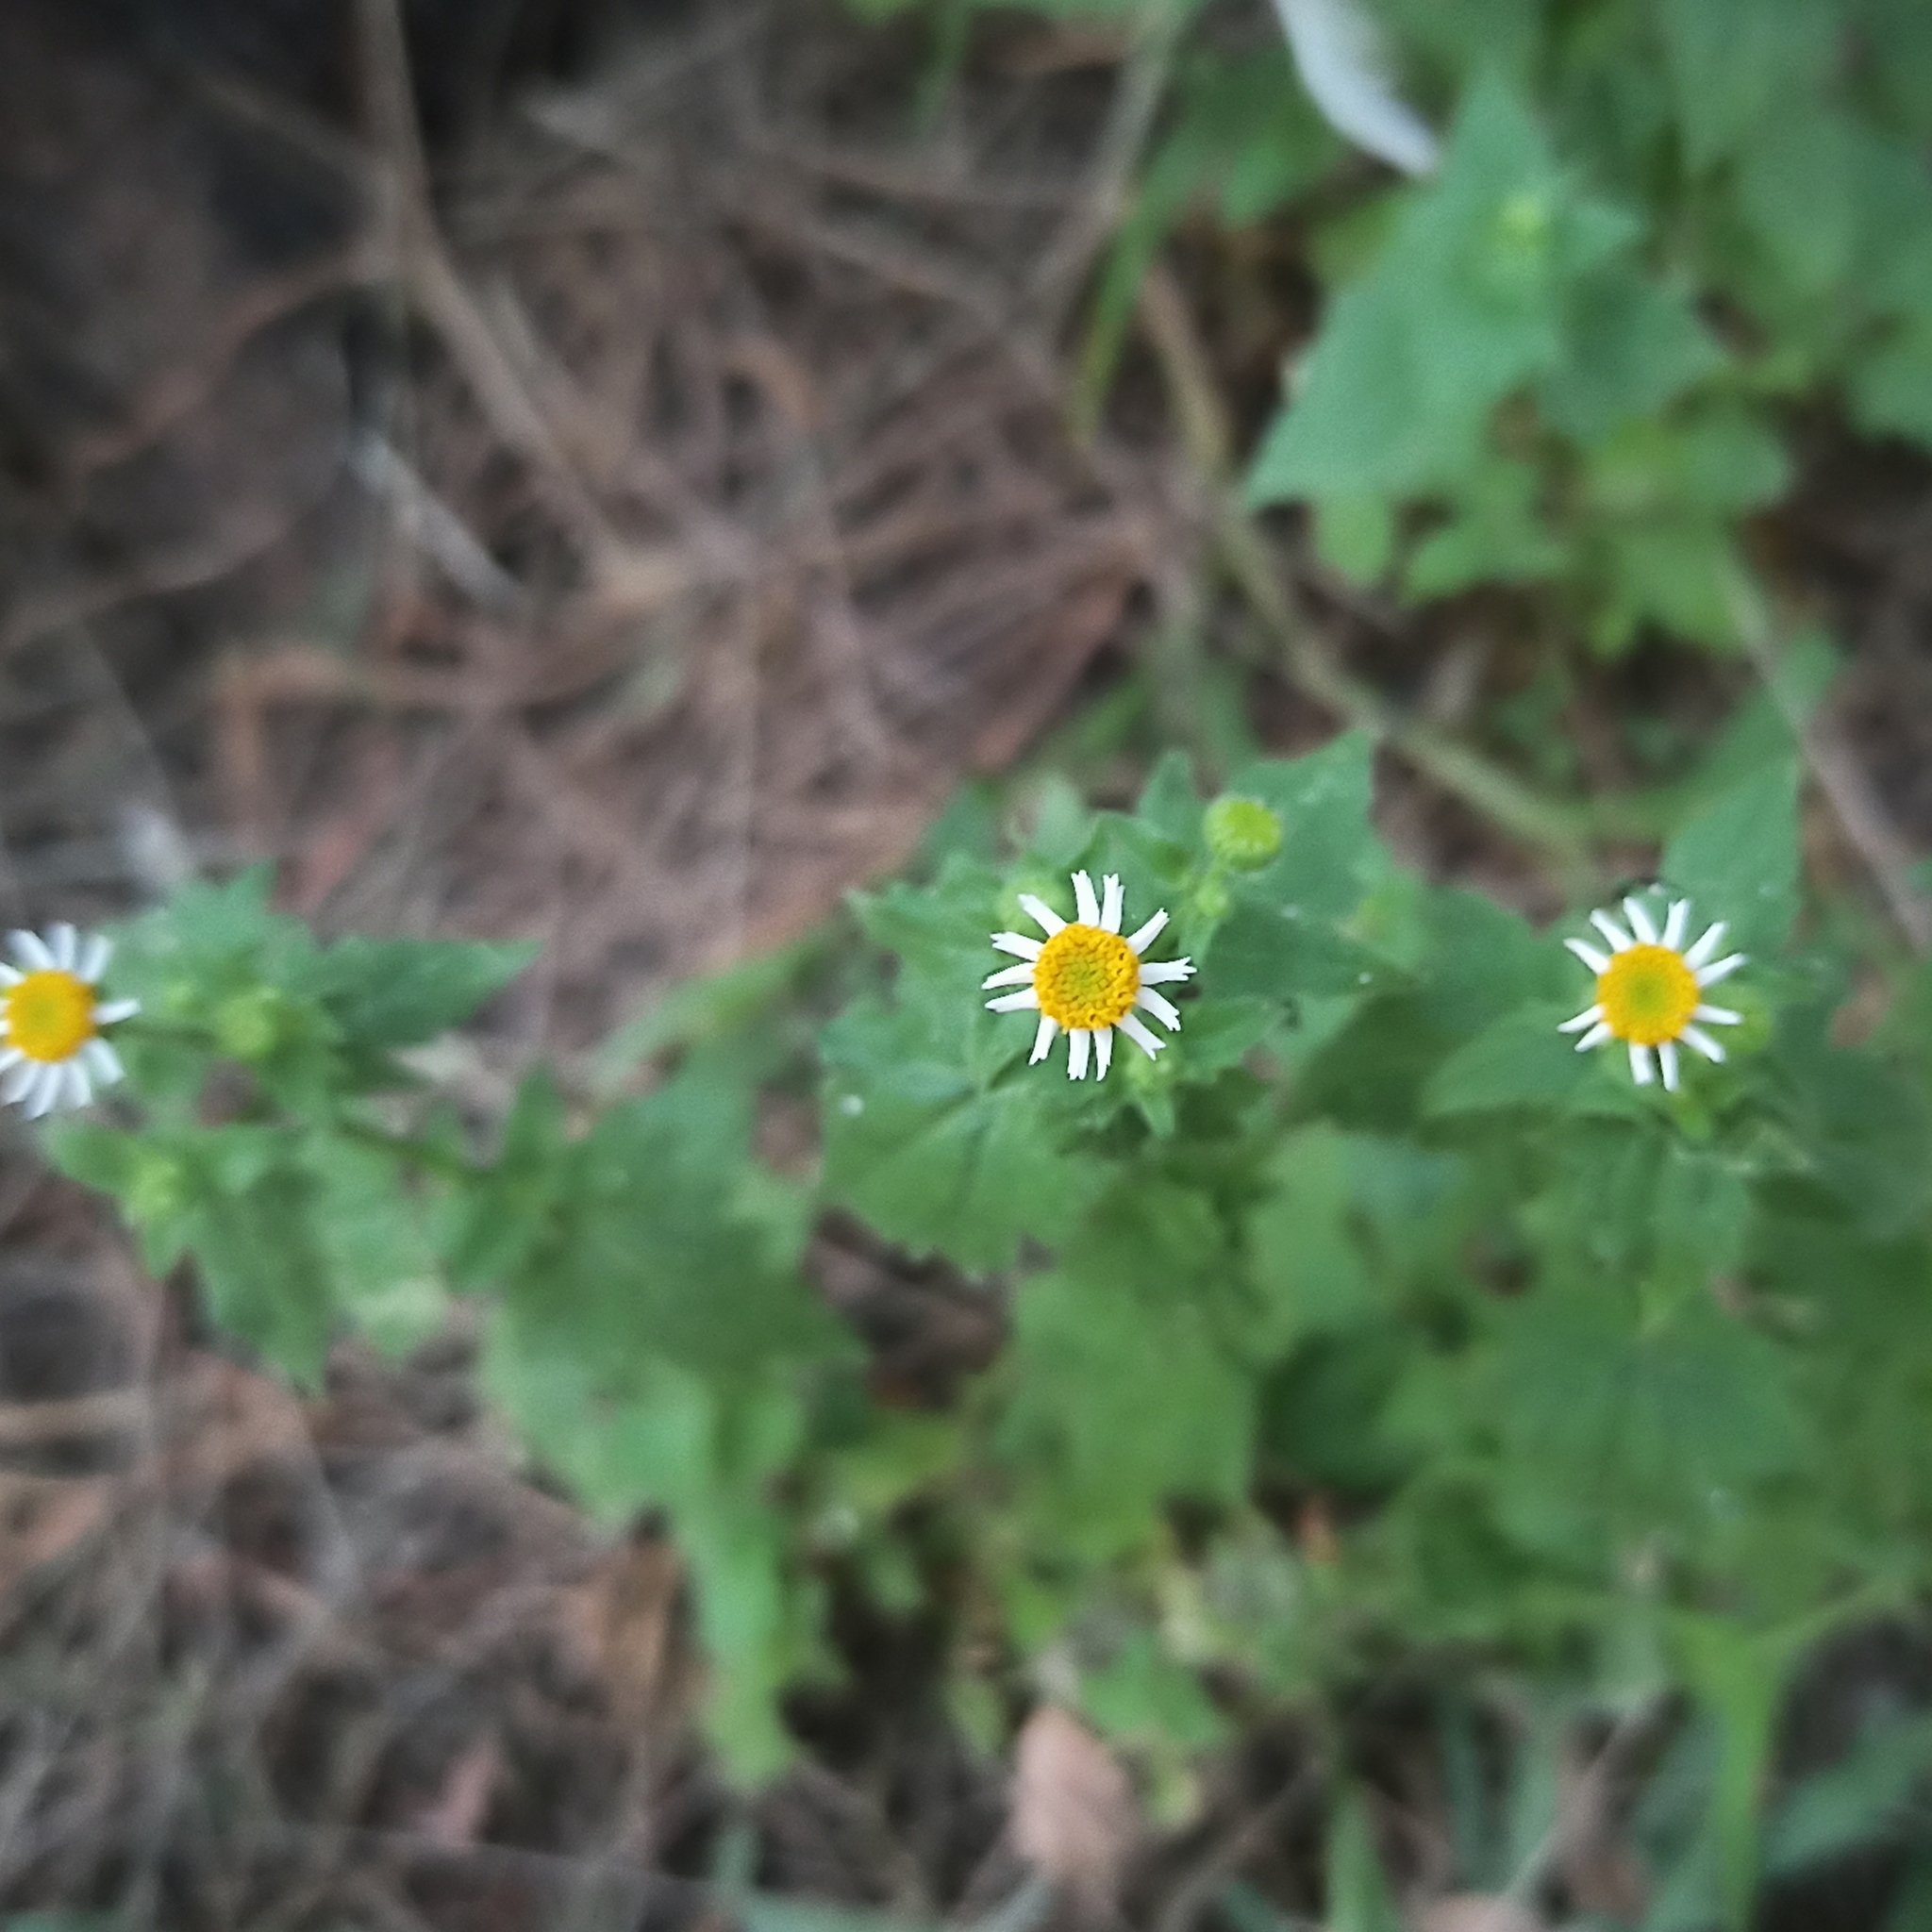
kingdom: Plantae
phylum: Tracheophyta
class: Magnoliopsida
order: Asterales
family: Asteraceae
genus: Galinsogeopsis
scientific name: Galinsogeopsis spilanthoides
